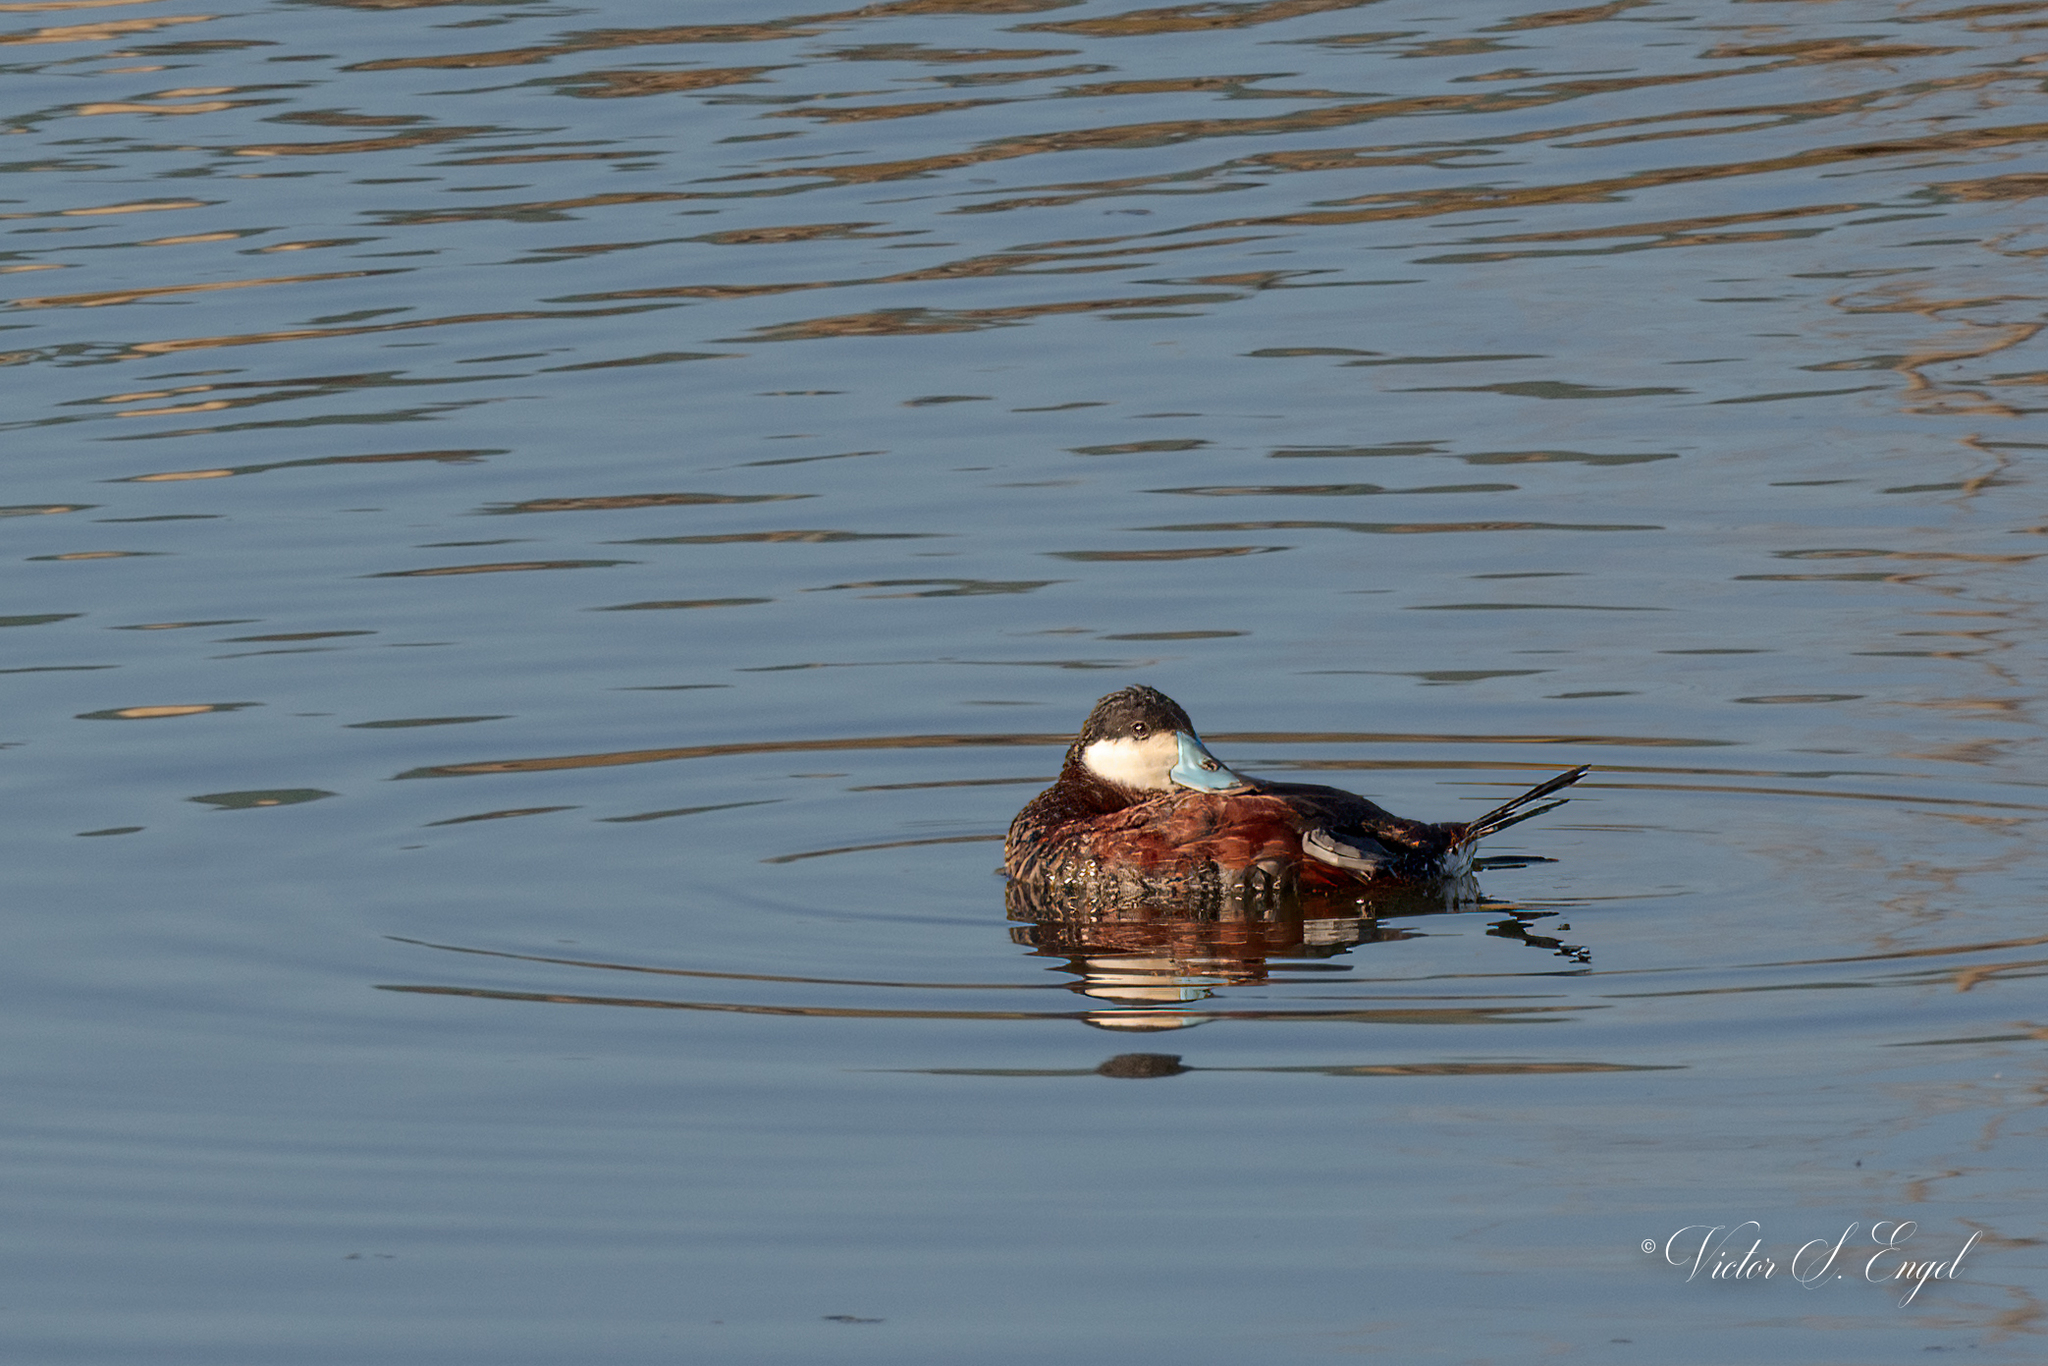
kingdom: Animalia
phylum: Chordata
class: Aves
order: Anseriformes
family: Anatidae
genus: Oxyura
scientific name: Oxyura jamaicensis
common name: Ruddy duck
